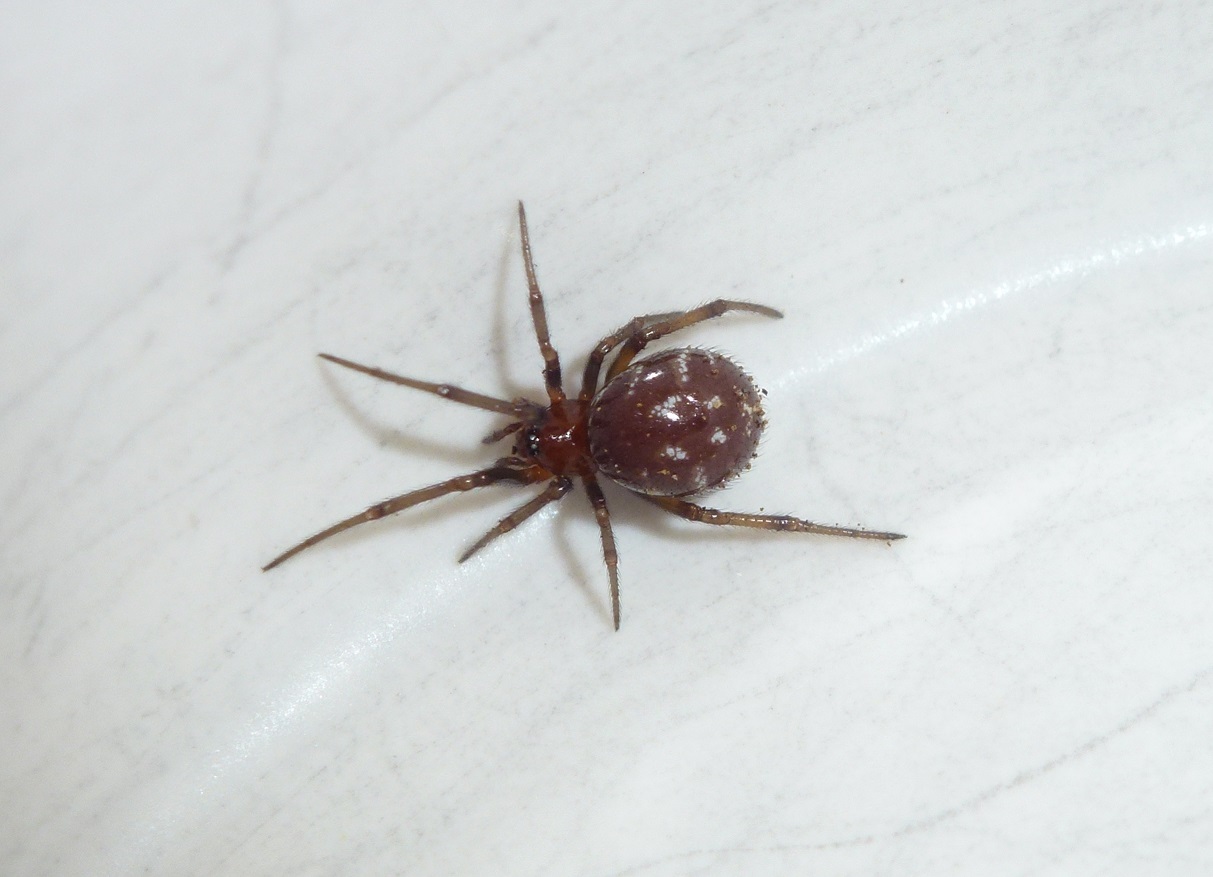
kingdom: Animalia
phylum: Arthropoda
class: Arachnida
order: Araneae
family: Theridiidae
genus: Steatoda
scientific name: Steatoda capensis
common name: Cobweb weaver
